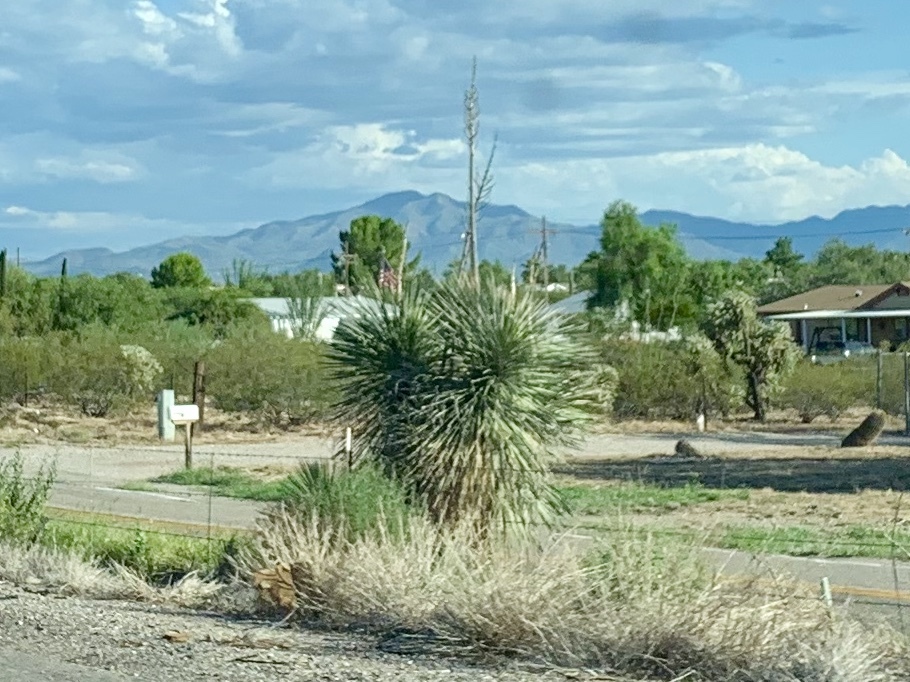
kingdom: Plantae
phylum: Tracheophyta
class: Liliopsida
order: Asparagales
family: Asparagaceae
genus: Yucca
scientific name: Yucca elata
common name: Palmella
